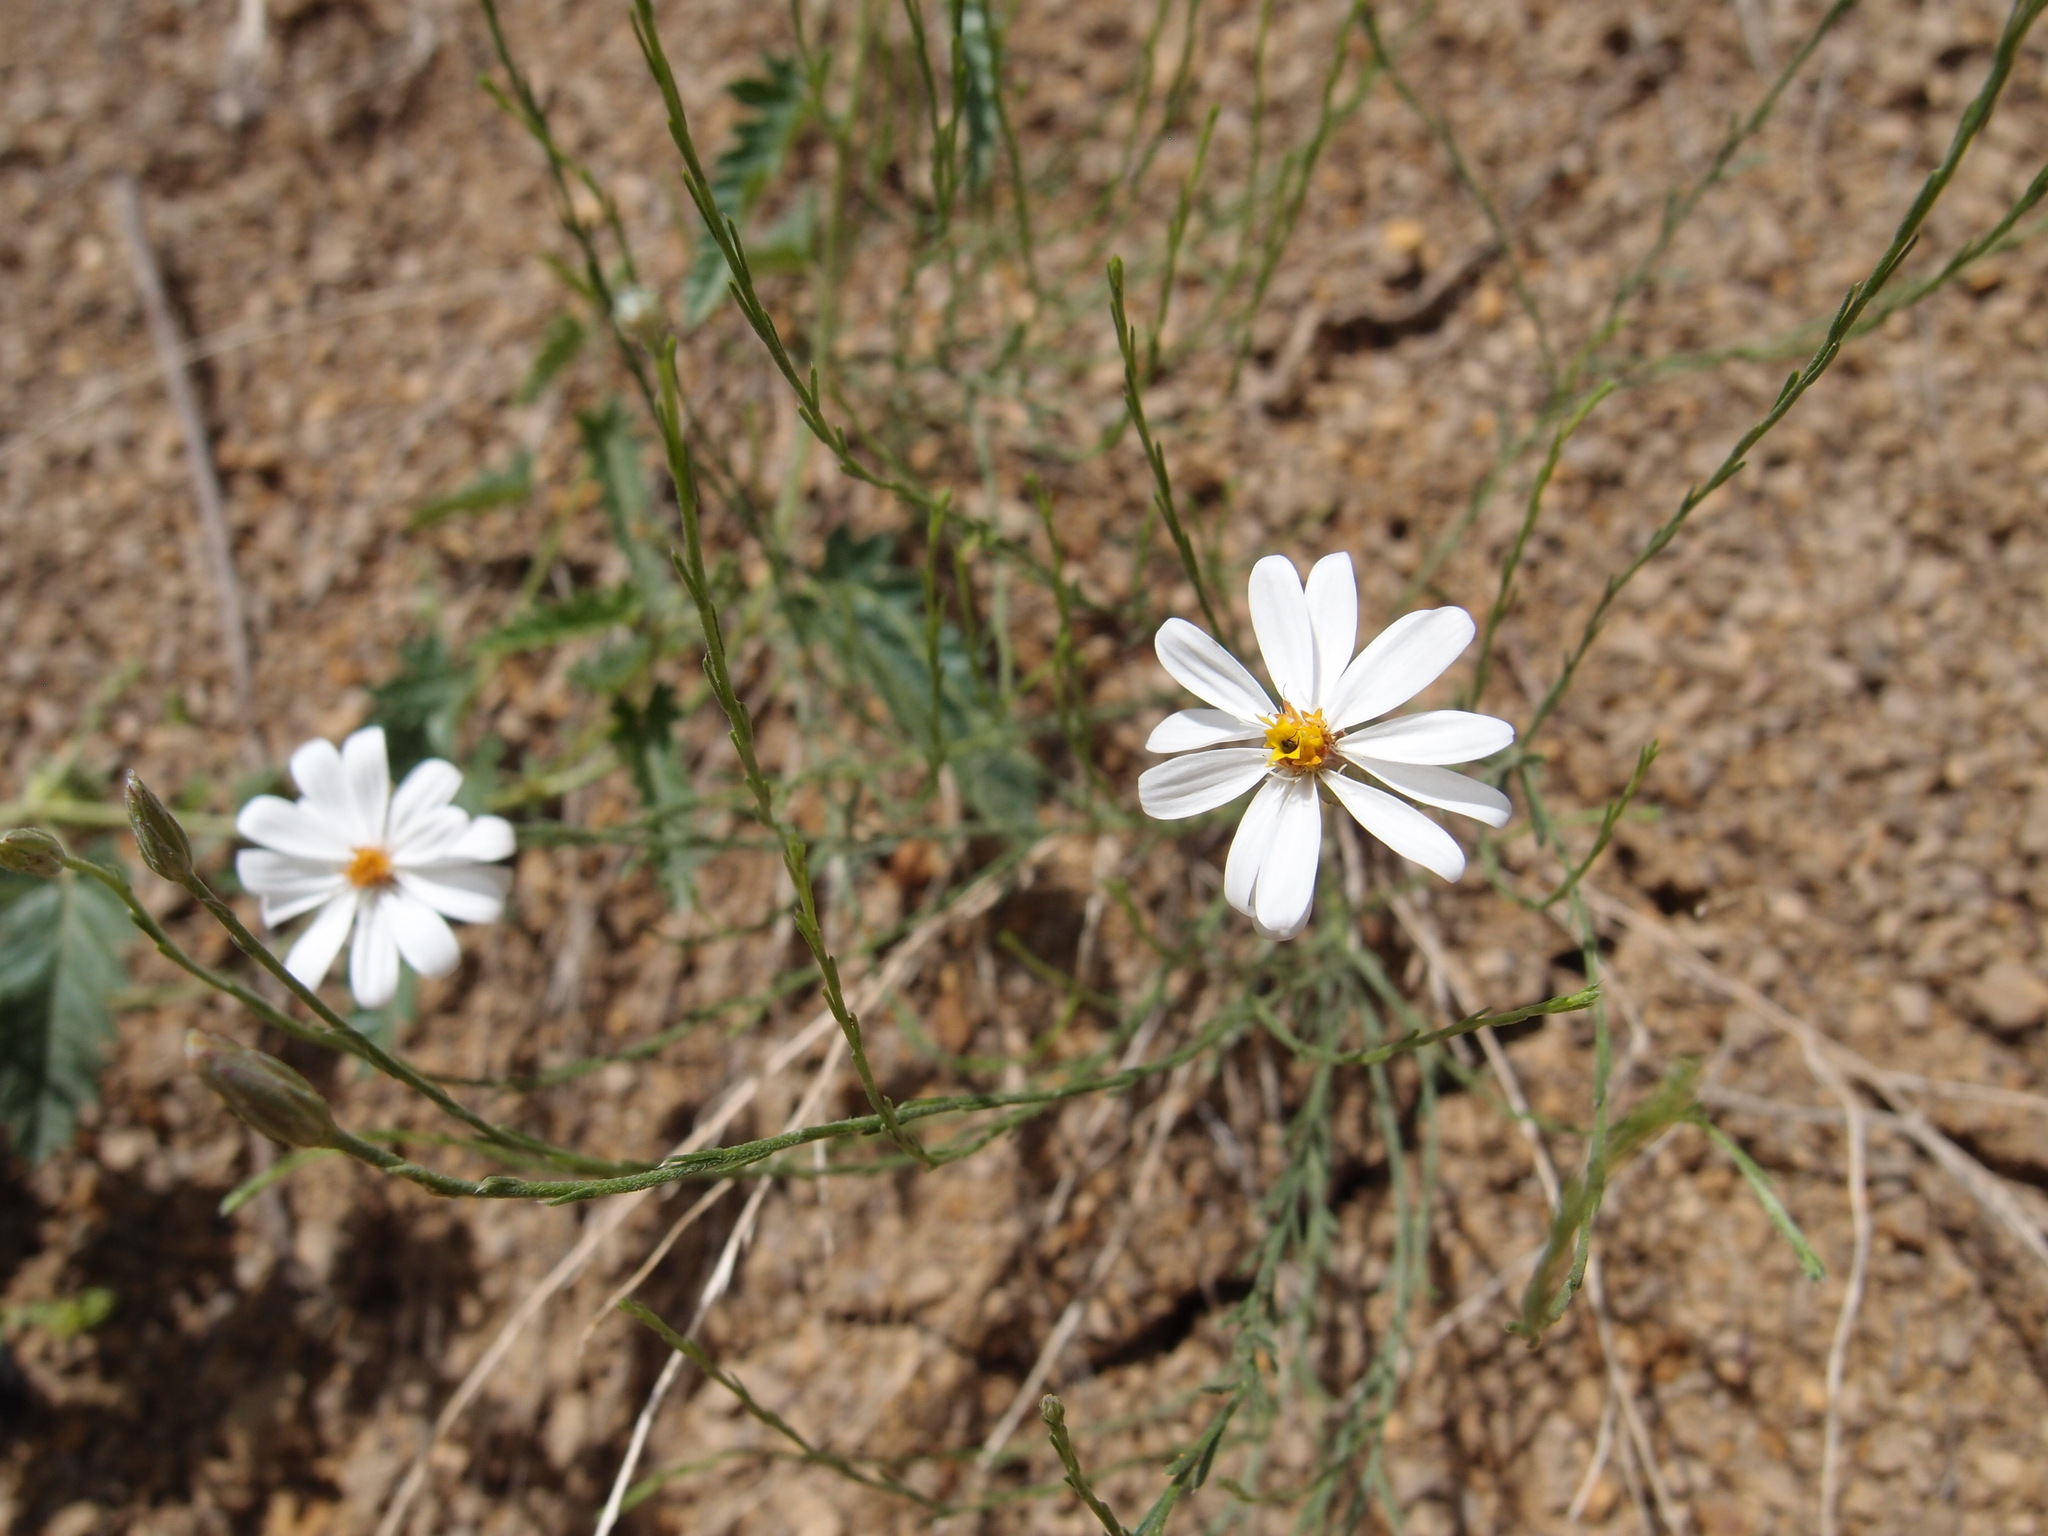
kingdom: Plantae
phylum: Tracheophyta
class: Magnoliopsida
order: Asterales
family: Asteraceae
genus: Chaetopappa
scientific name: Chaetopappa ericoides
